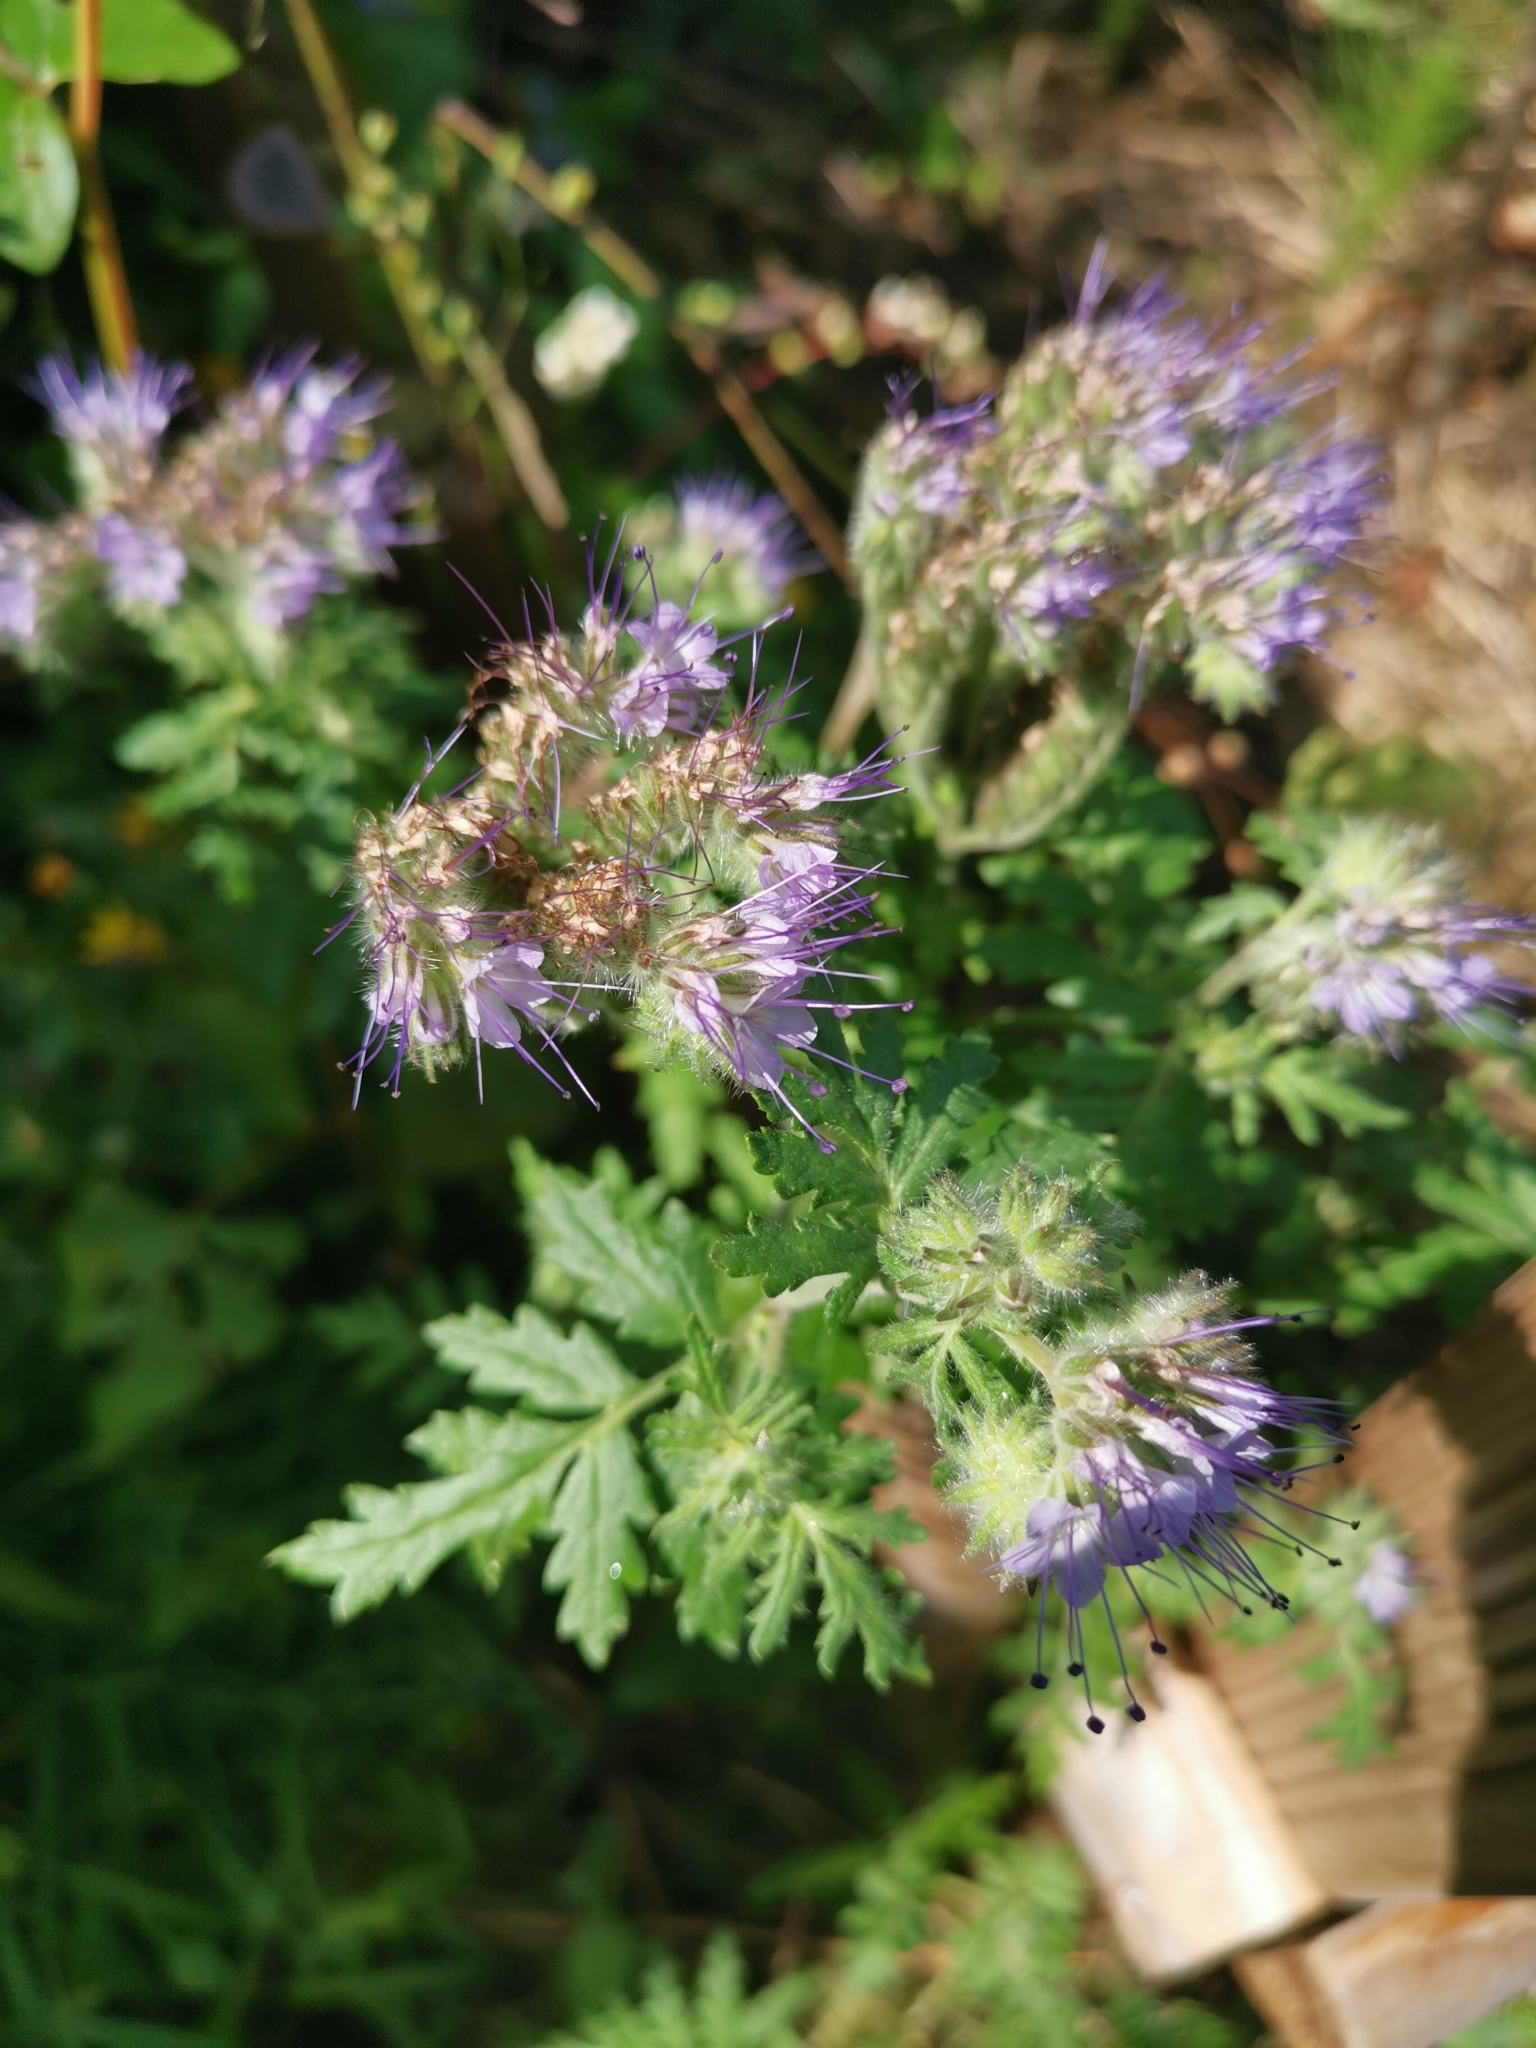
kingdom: Plantae
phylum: Tracheophyta
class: Magnoliopsida
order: Boraginales
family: Hydrophyllaceae
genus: Phacelia
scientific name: Phacelia tanacetifolia
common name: Phacelia
